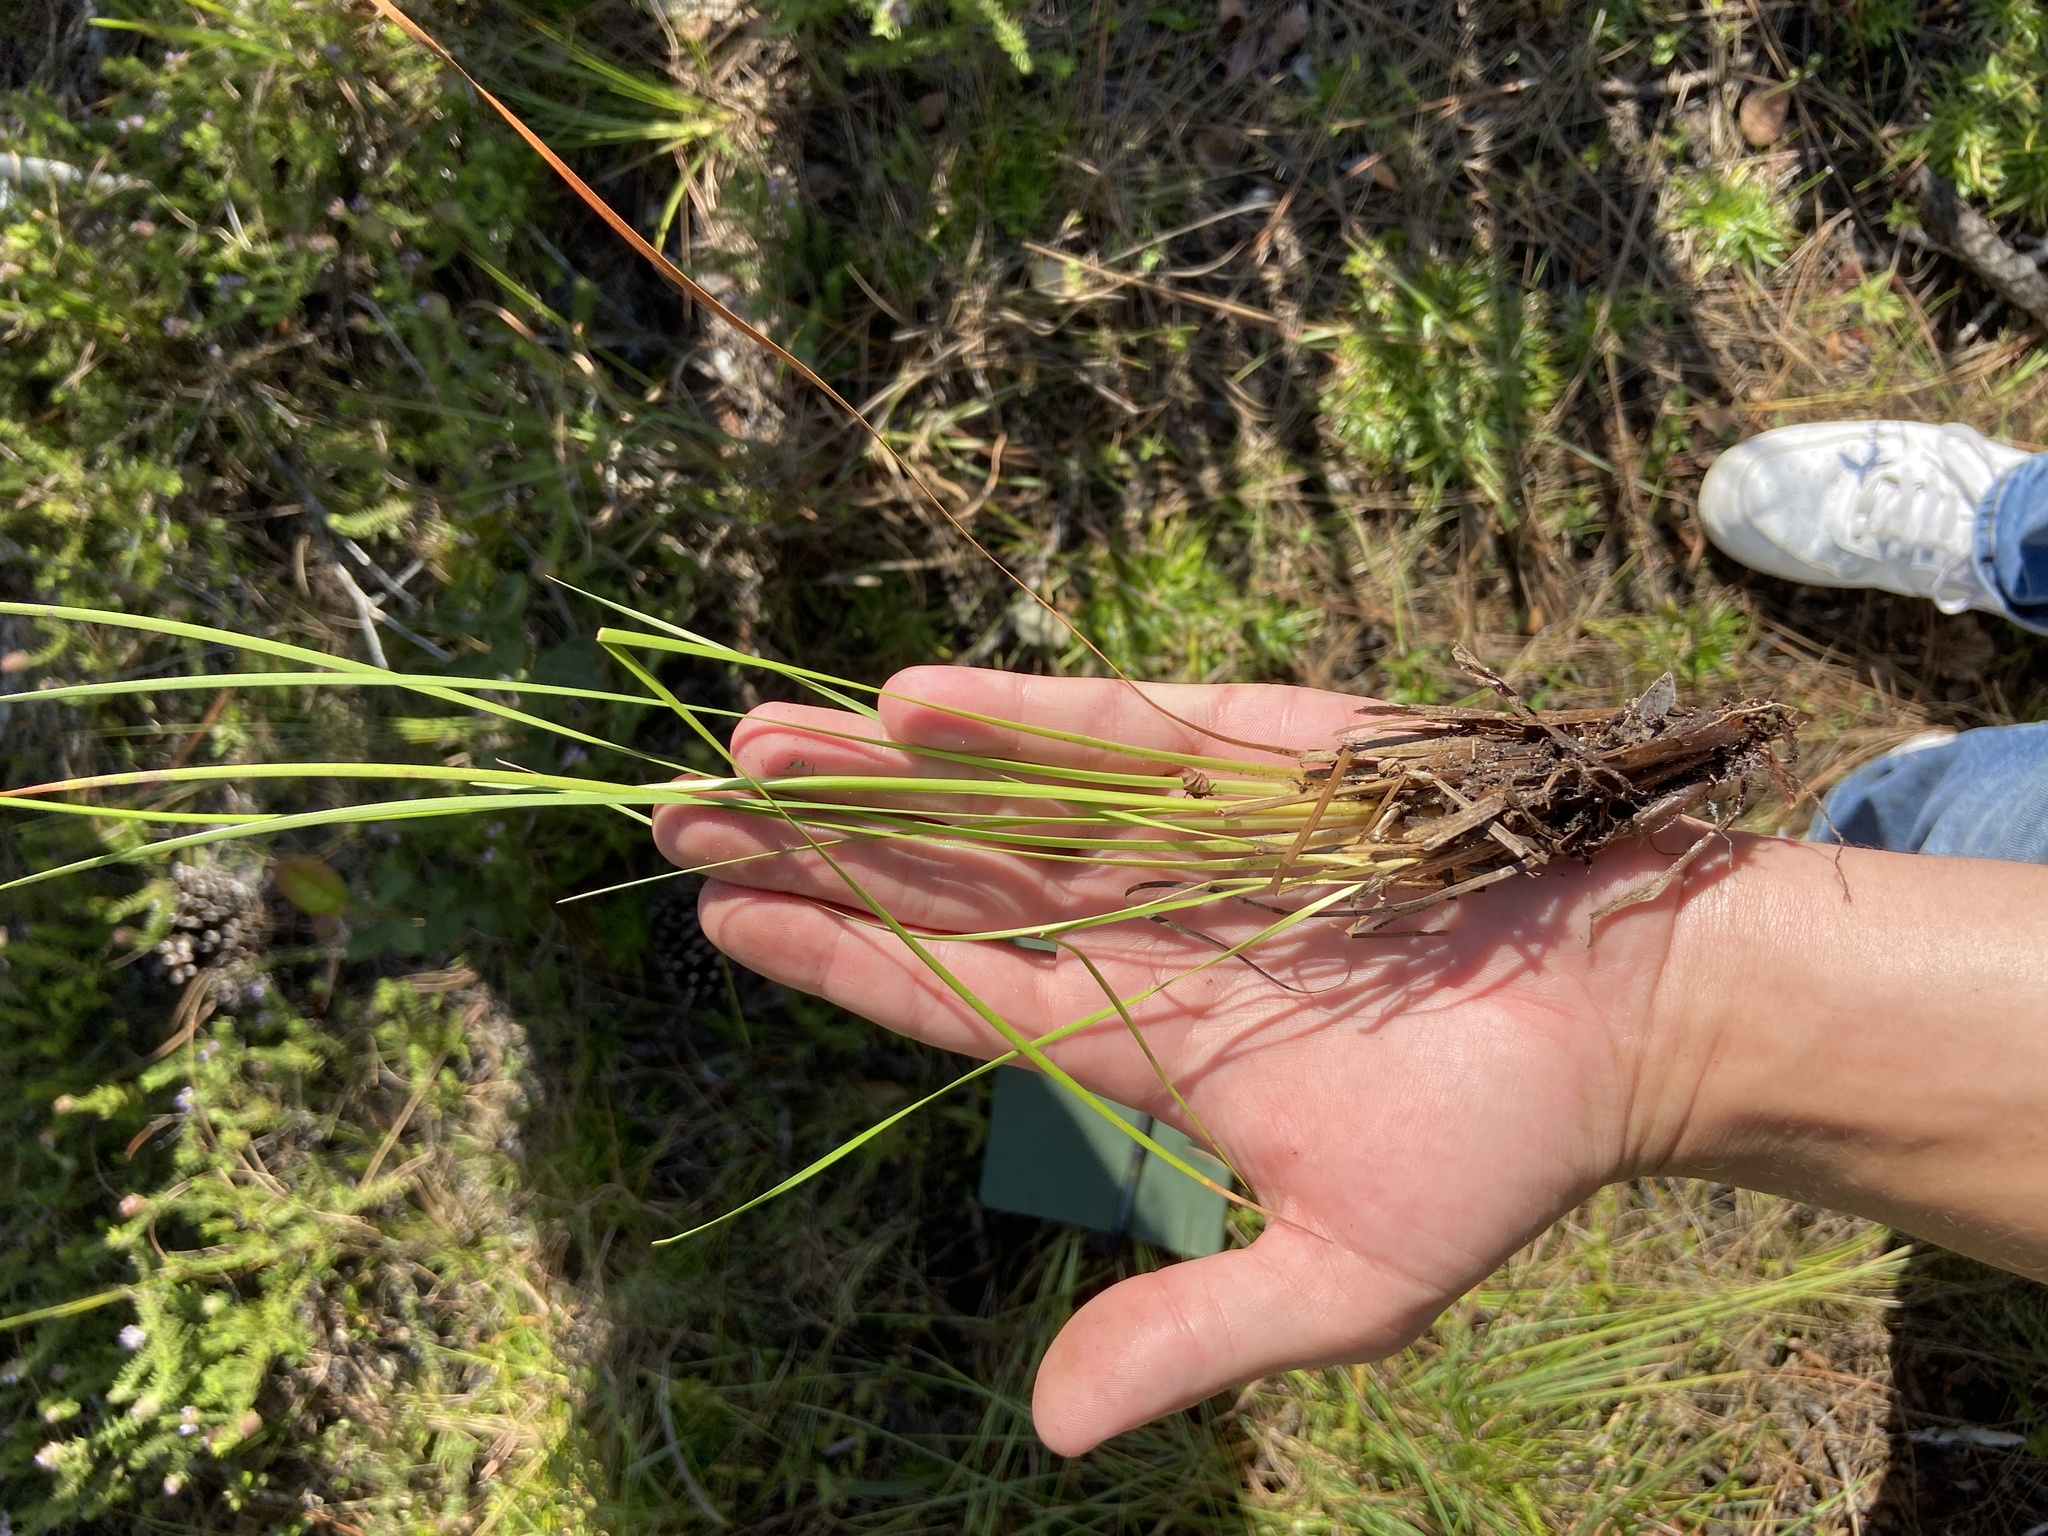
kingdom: Plantae
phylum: Tracheophyta
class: Liliopsida
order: Poales
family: Xyridaceae
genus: Xyris
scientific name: Xyris elliottii
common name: Elliot's yelloweyed grass
